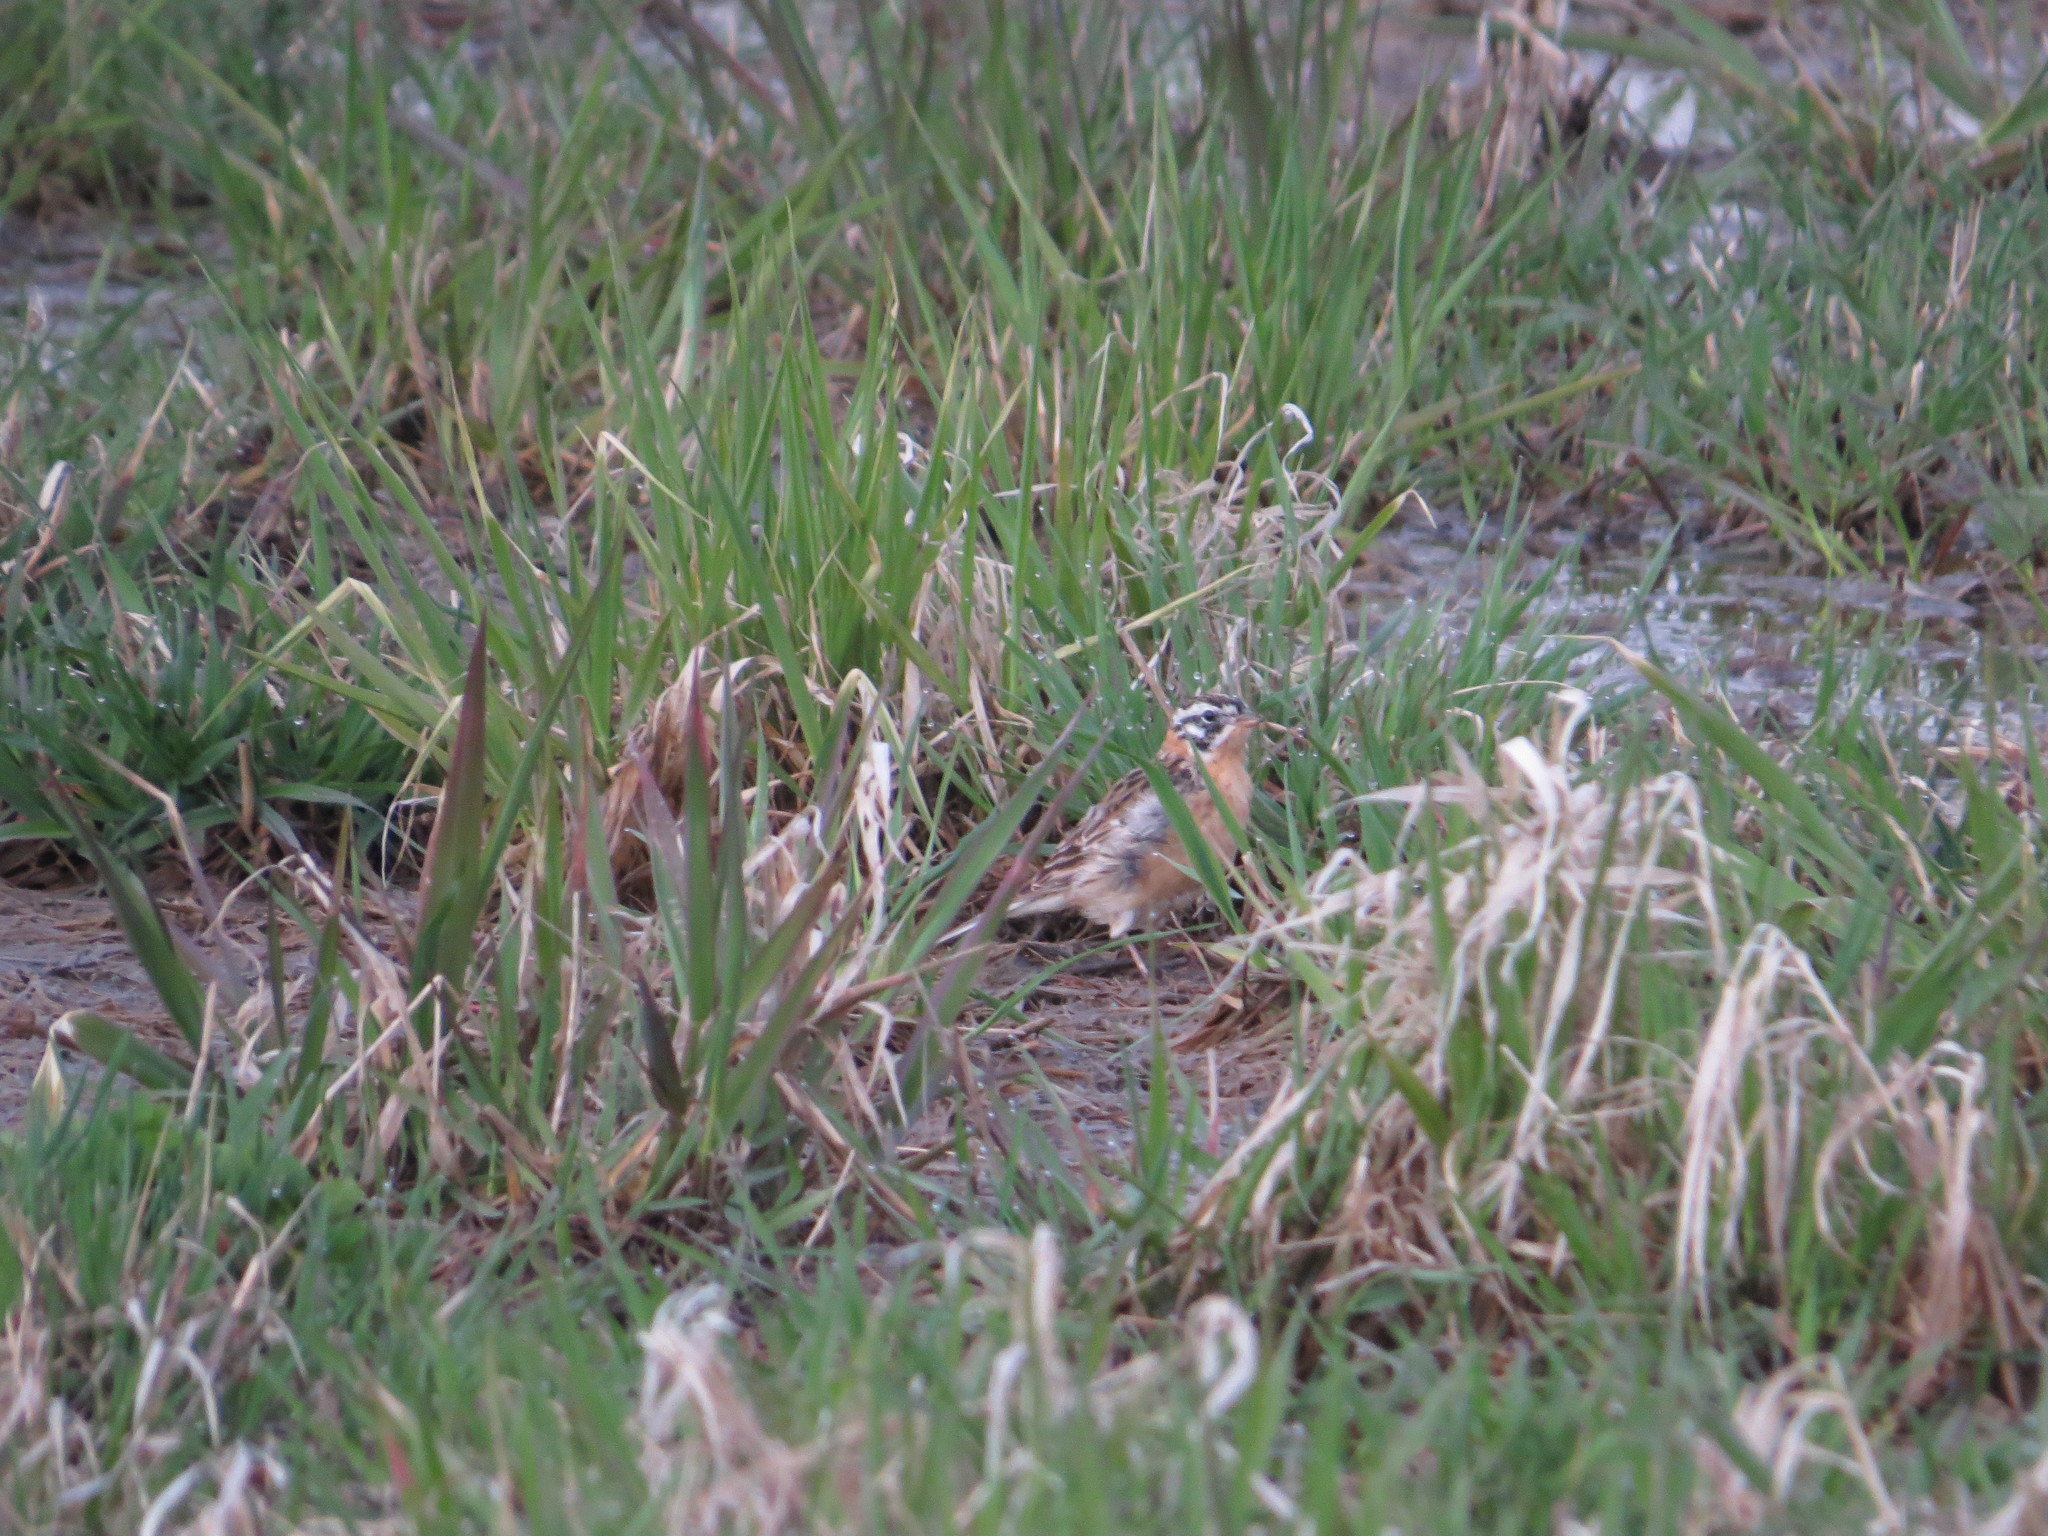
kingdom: Animalia
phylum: Chordata
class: Aves
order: Passeriformes
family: Calcariidae
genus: Calcarius
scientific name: Calcarius pictus
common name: Smith's longspur
